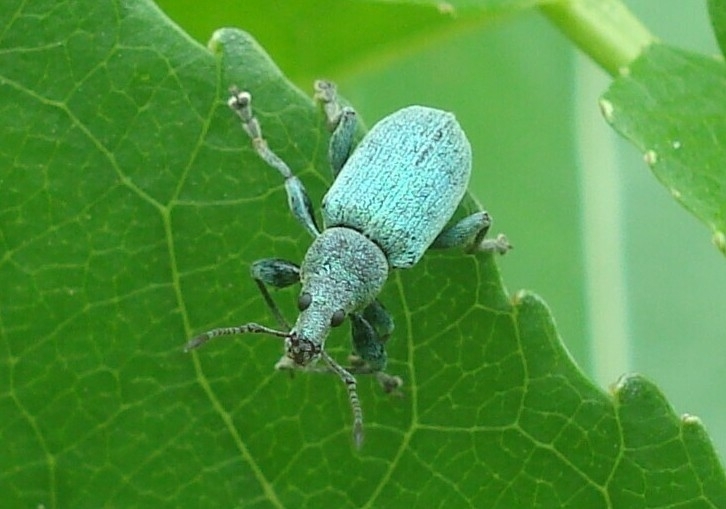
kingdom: Animalia
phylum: Arthropoda
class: Insecta
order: Coleoptera
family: Curculionidae
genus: Phyllobius
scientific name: Phyllobius pomaceus
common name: Green nettle weevil
